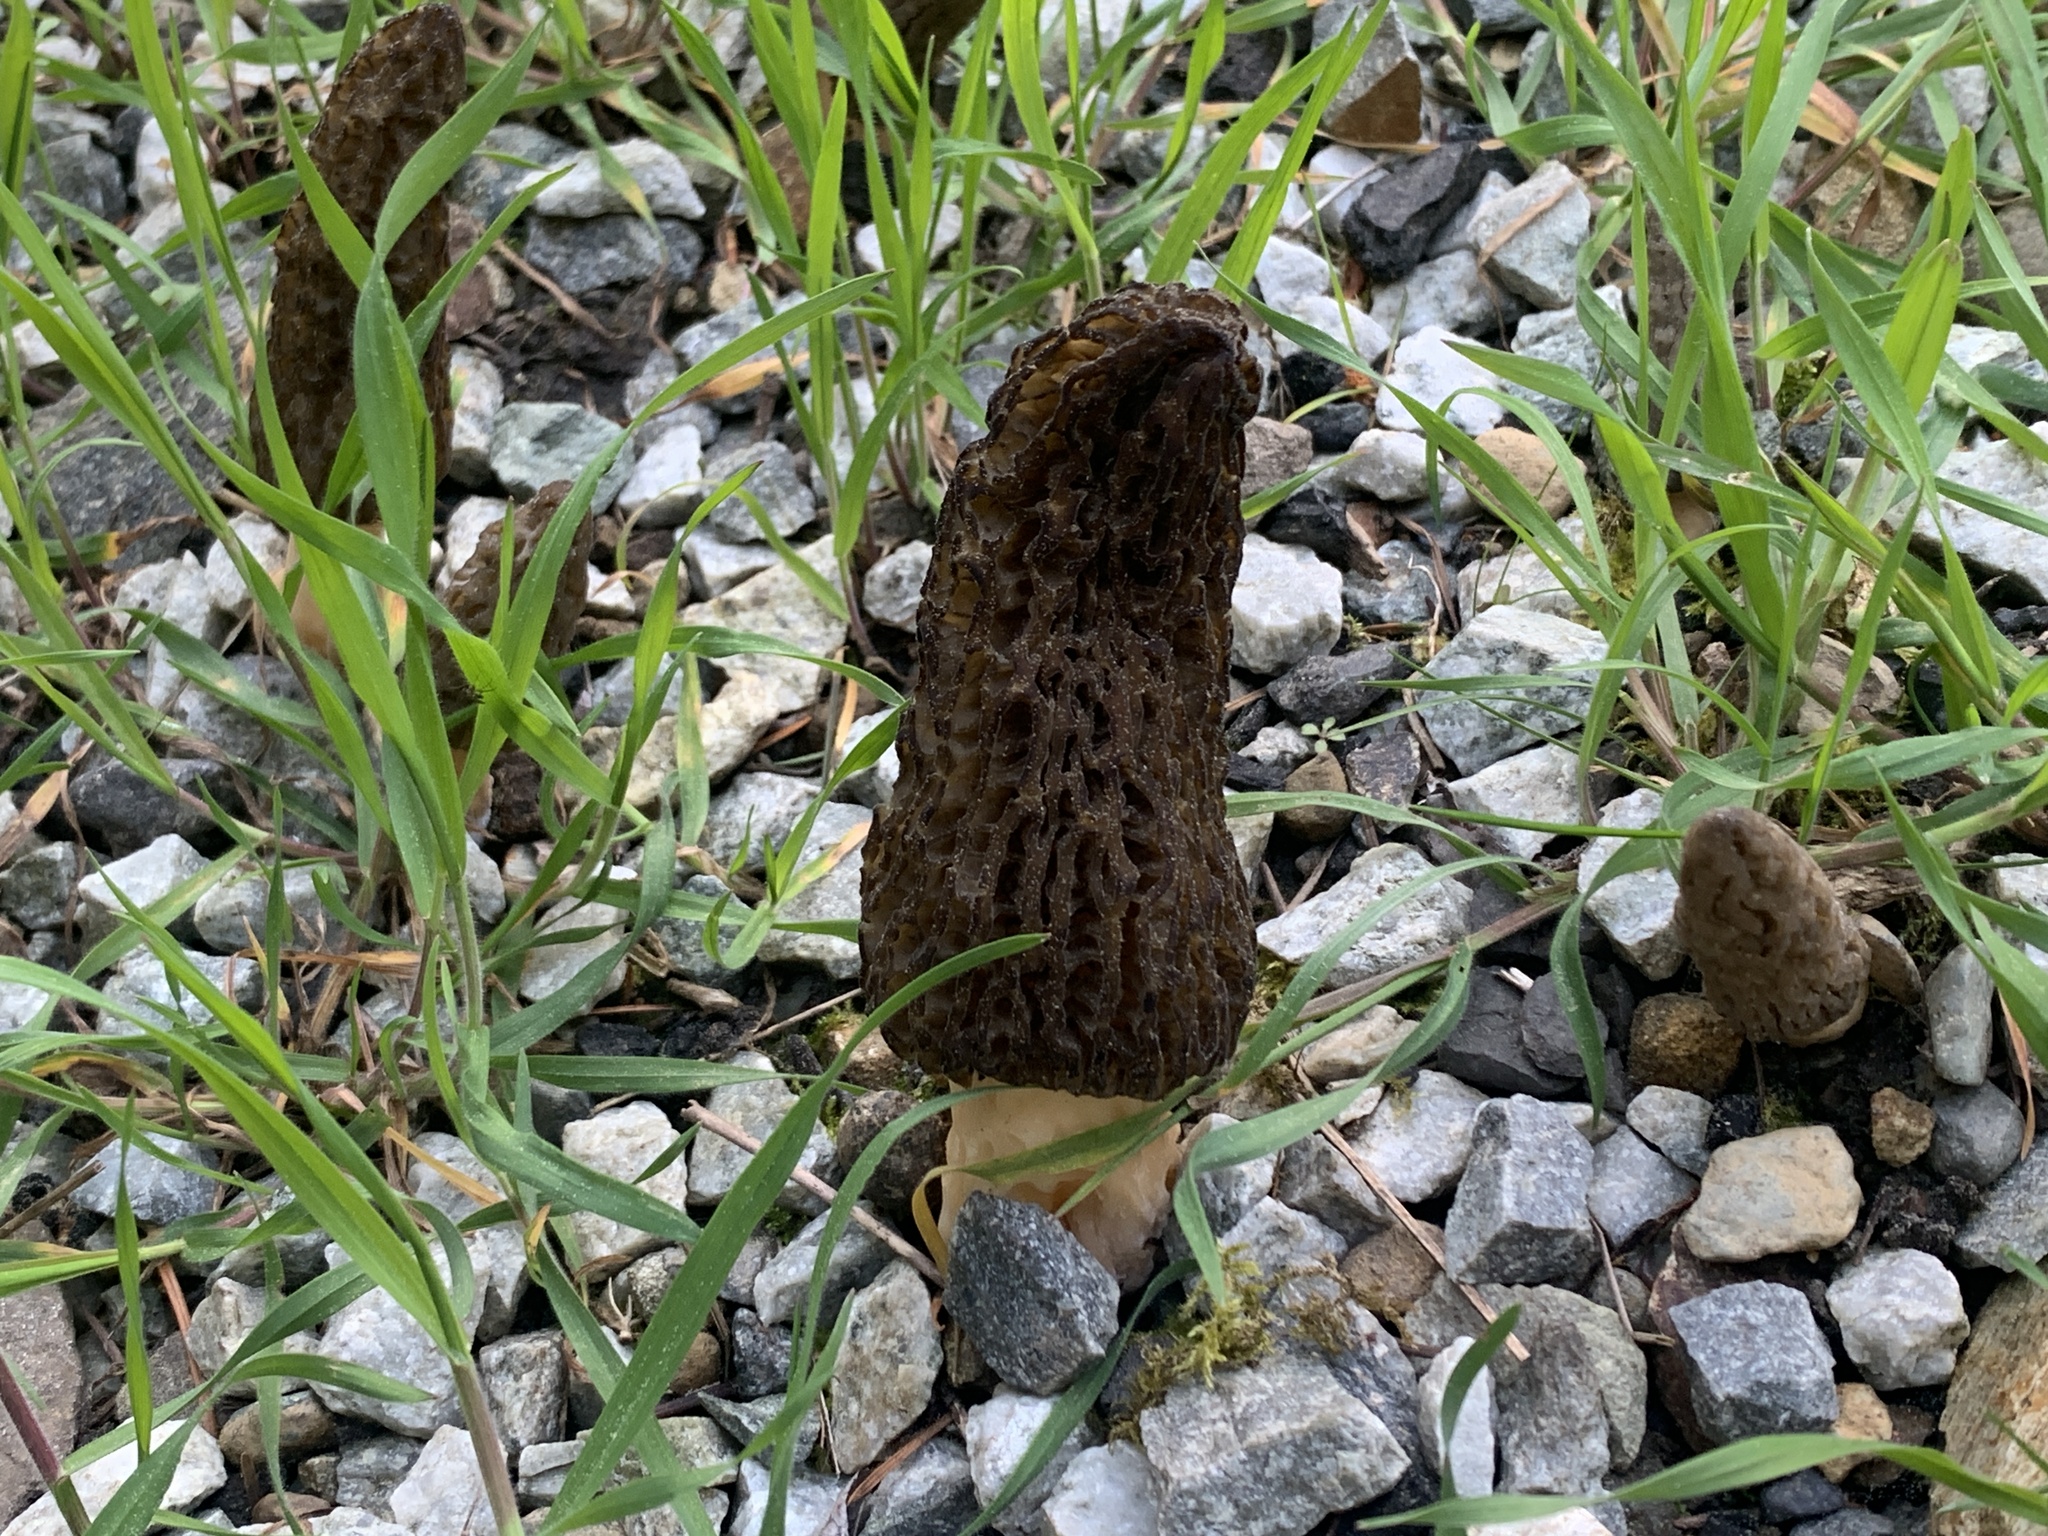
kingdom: Fungi
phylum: Ascomycota
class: Pezizomycetes
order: Pezizales
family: Morchellaceae
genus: Morchella
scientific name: Morchella importuna
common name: Landscaping black morel
